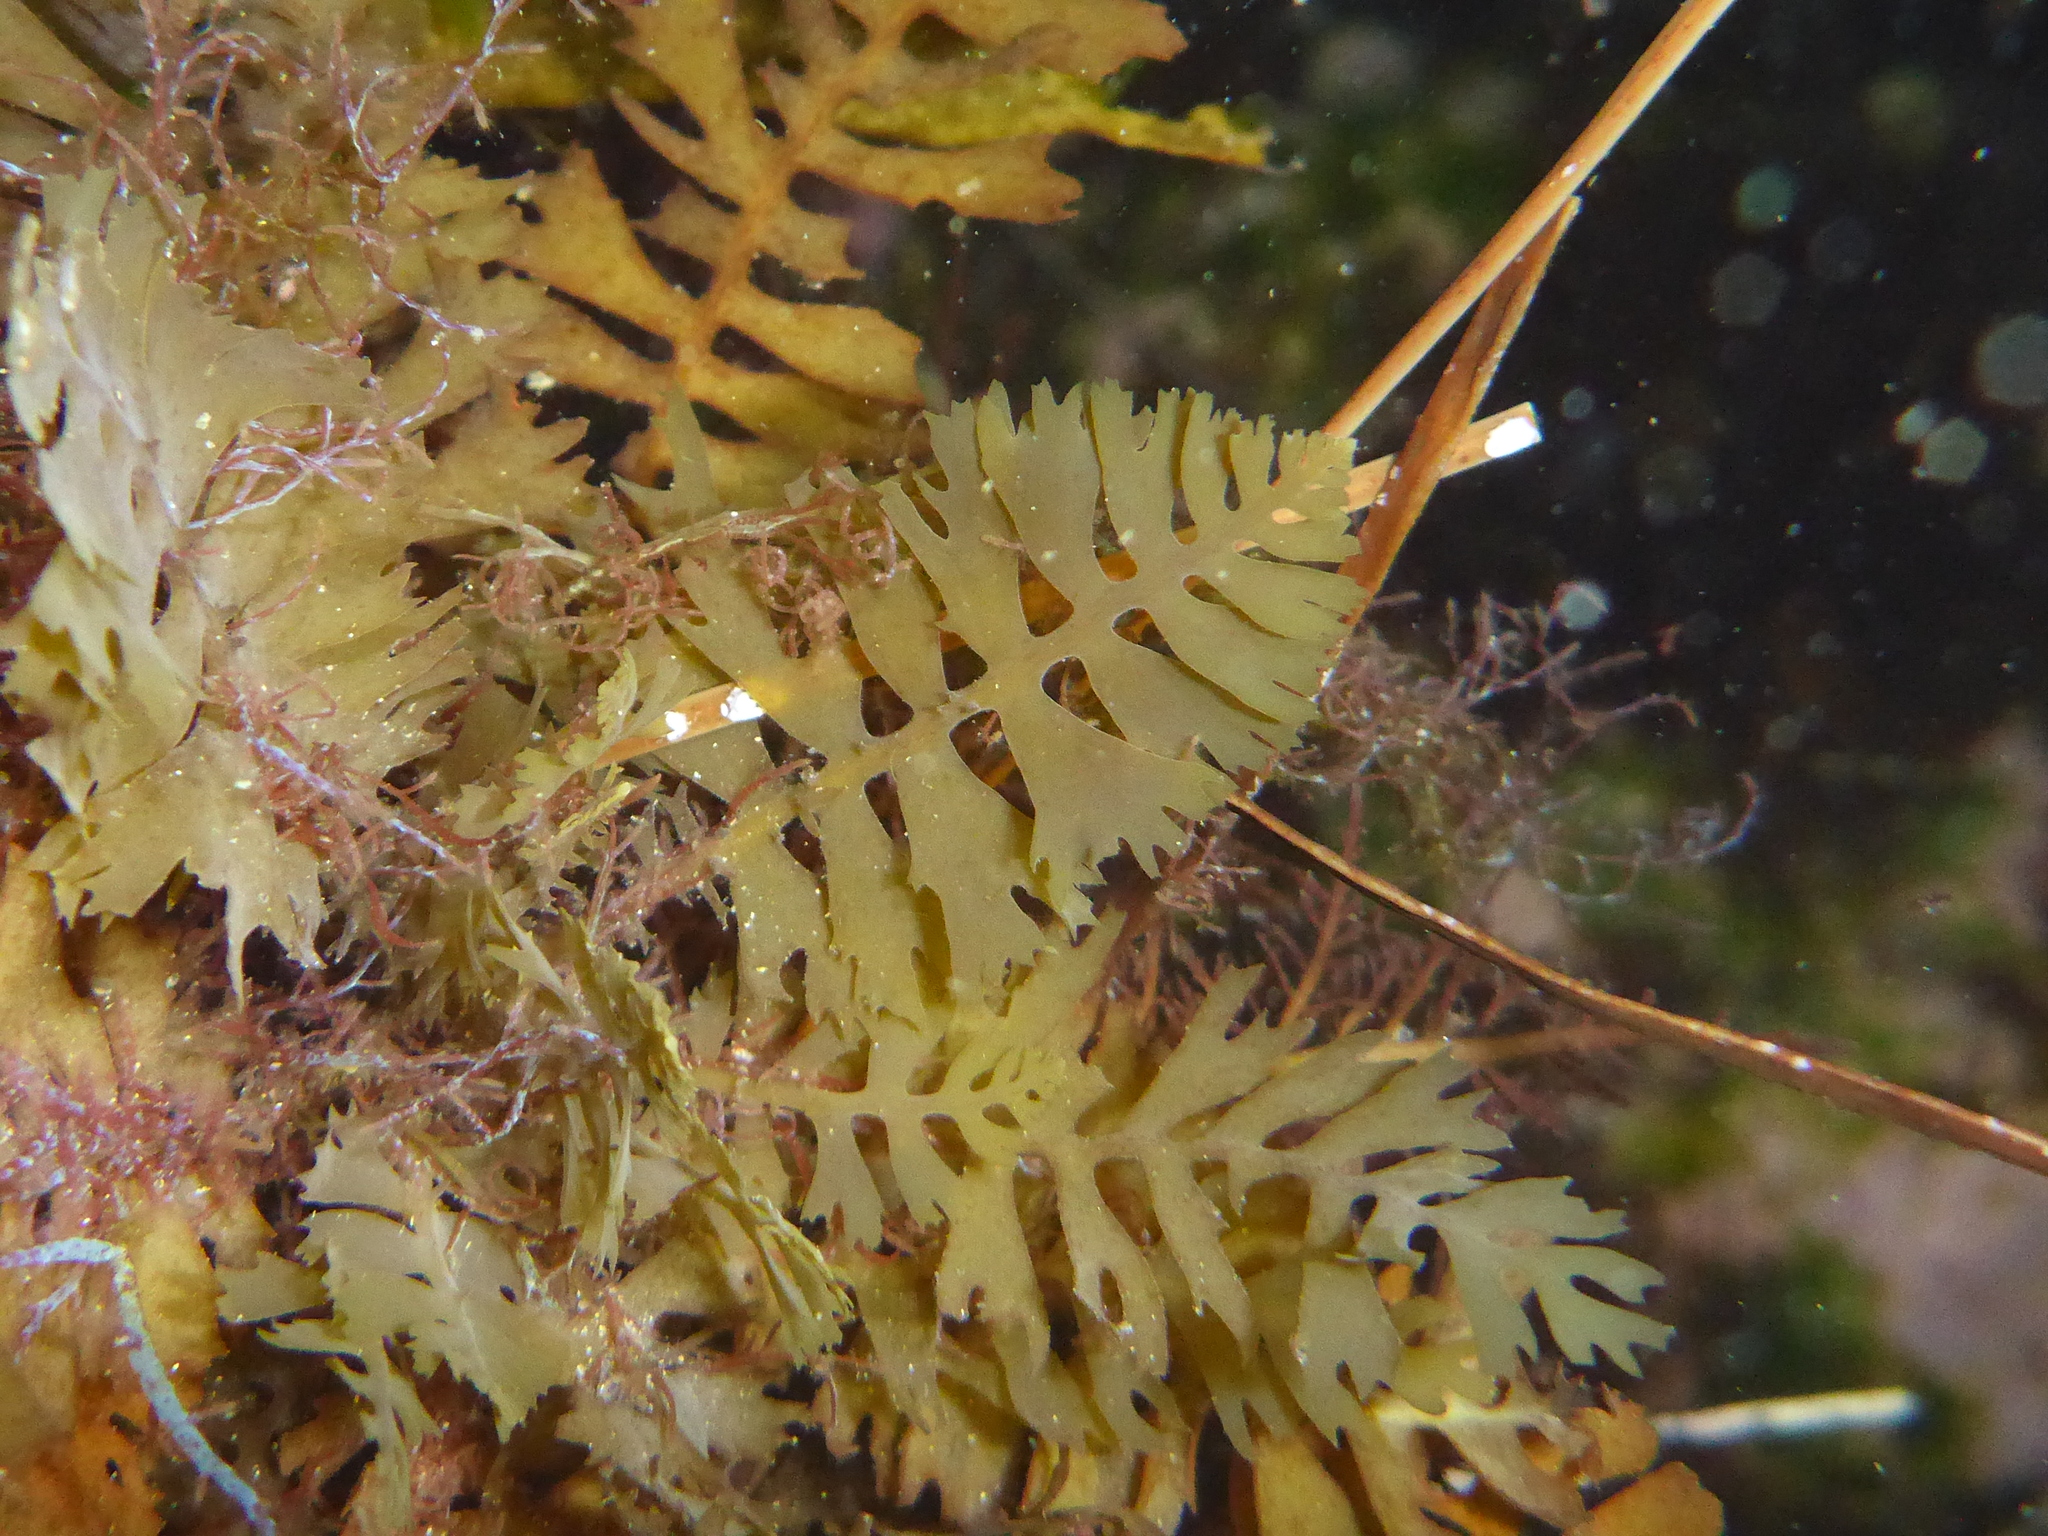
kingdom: Chromista
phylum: Ochrophyta
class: Phaeophyceae
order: Fucales
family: Sargassaceae
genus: Sargassum
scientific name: Sargassum horneri
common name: Devil weed
